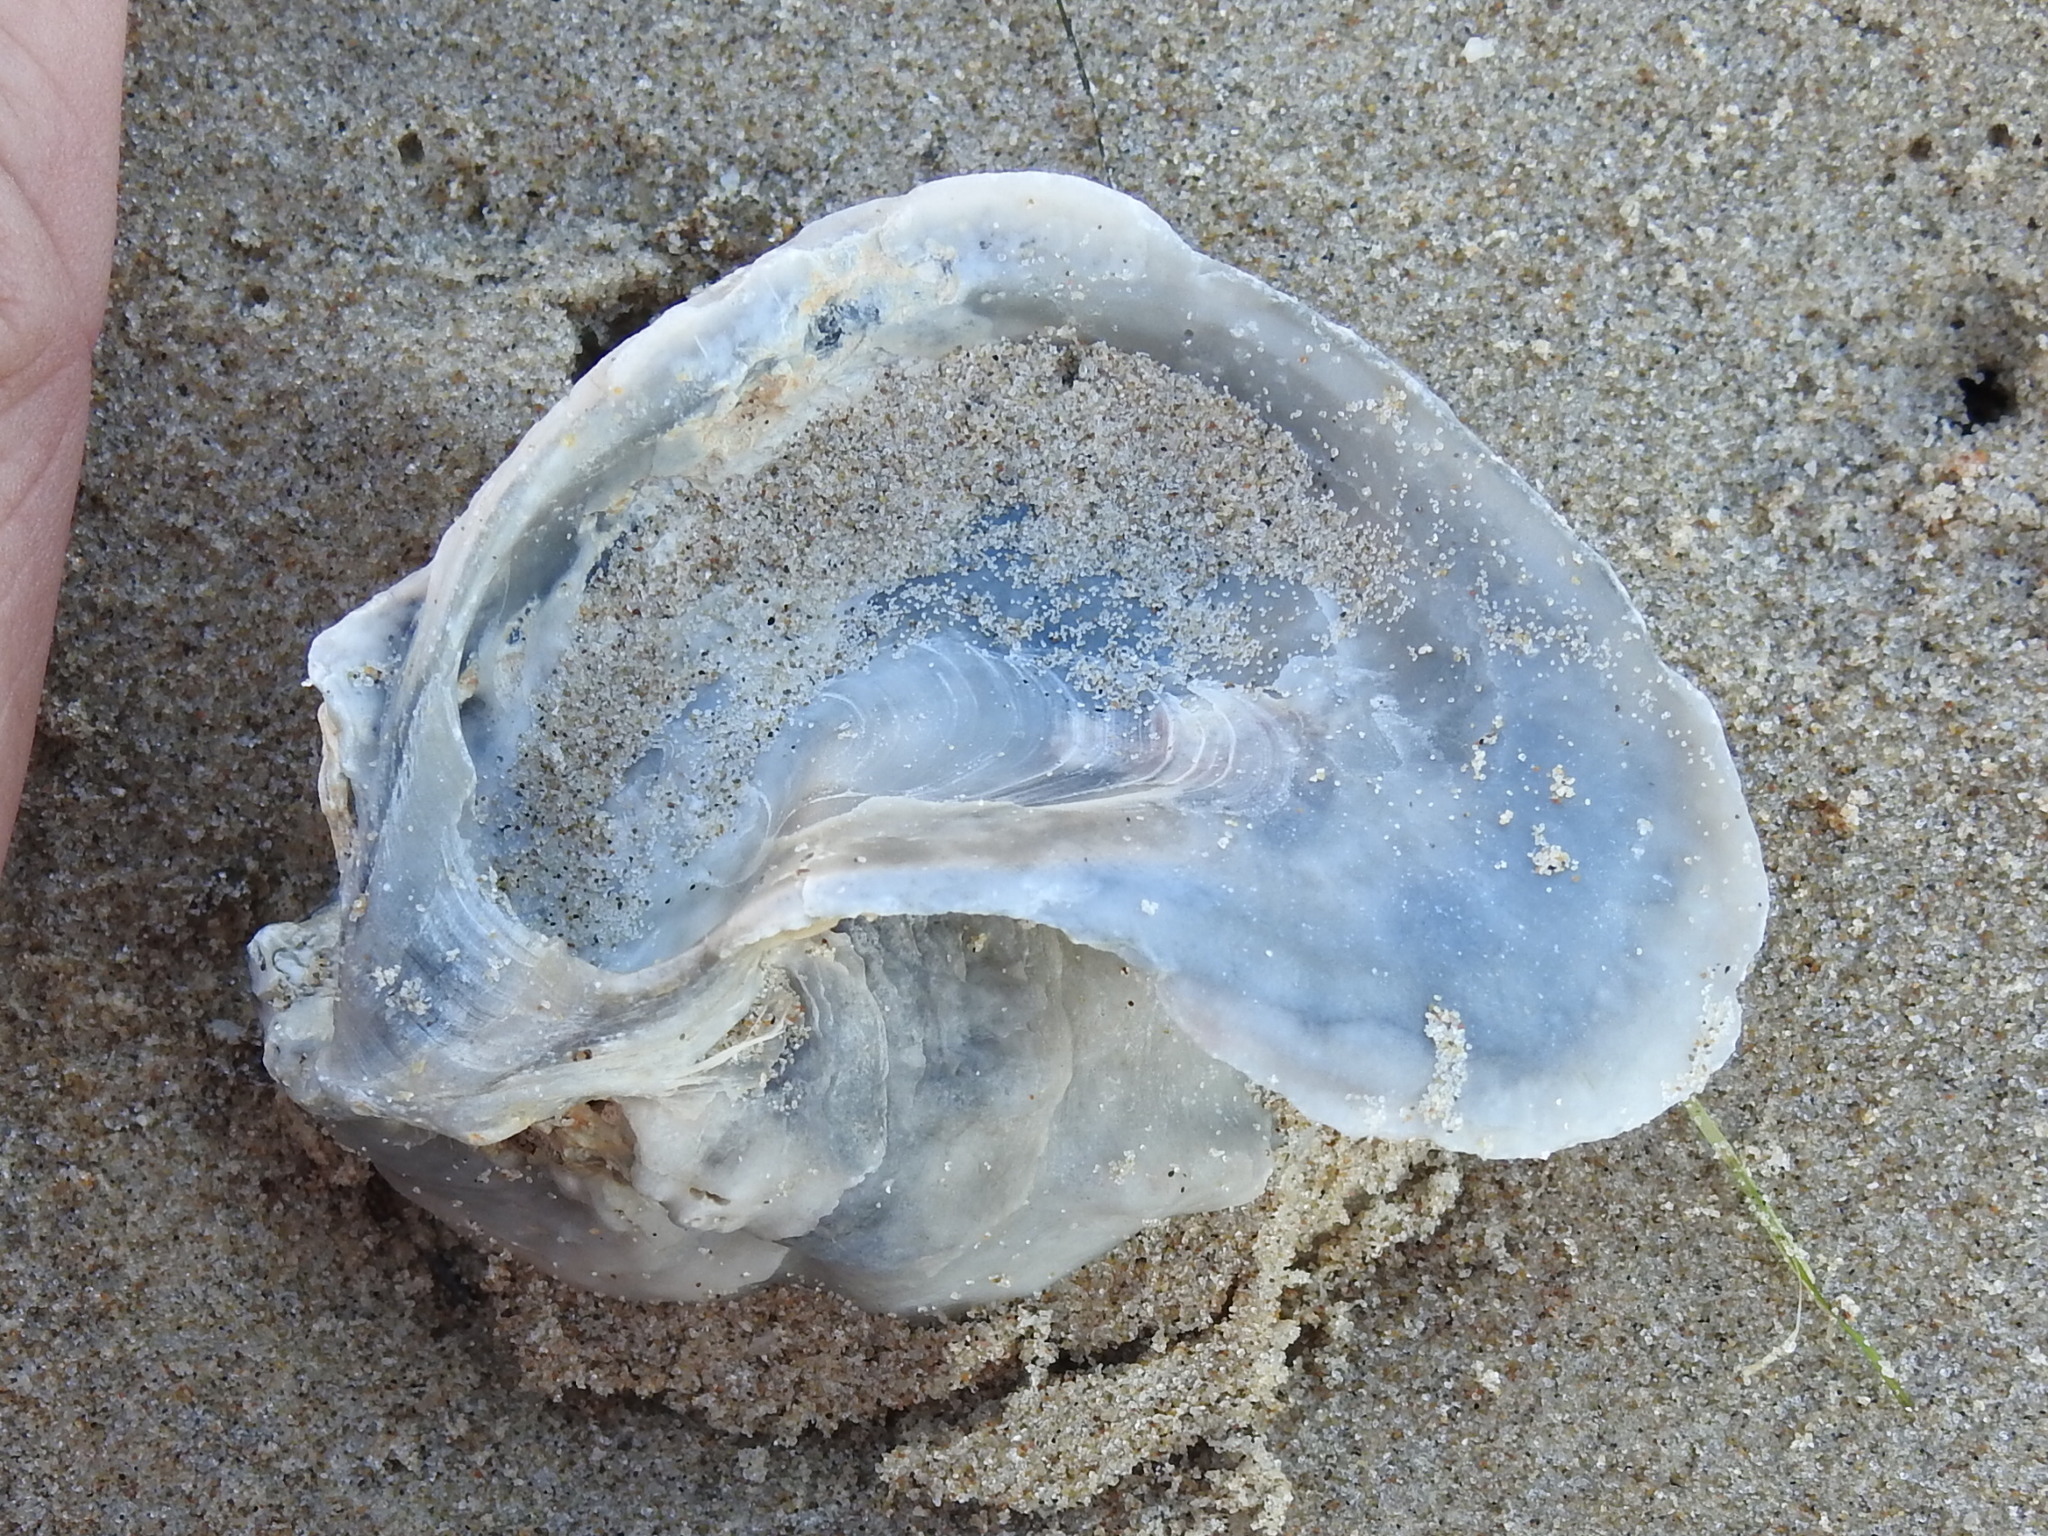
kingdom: Animalia
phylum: Mollusca
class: Bivalvia
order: Ostreida
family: Ostreidae
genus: Crassostrea
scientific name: Crassostrea virginica
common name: American oyster
